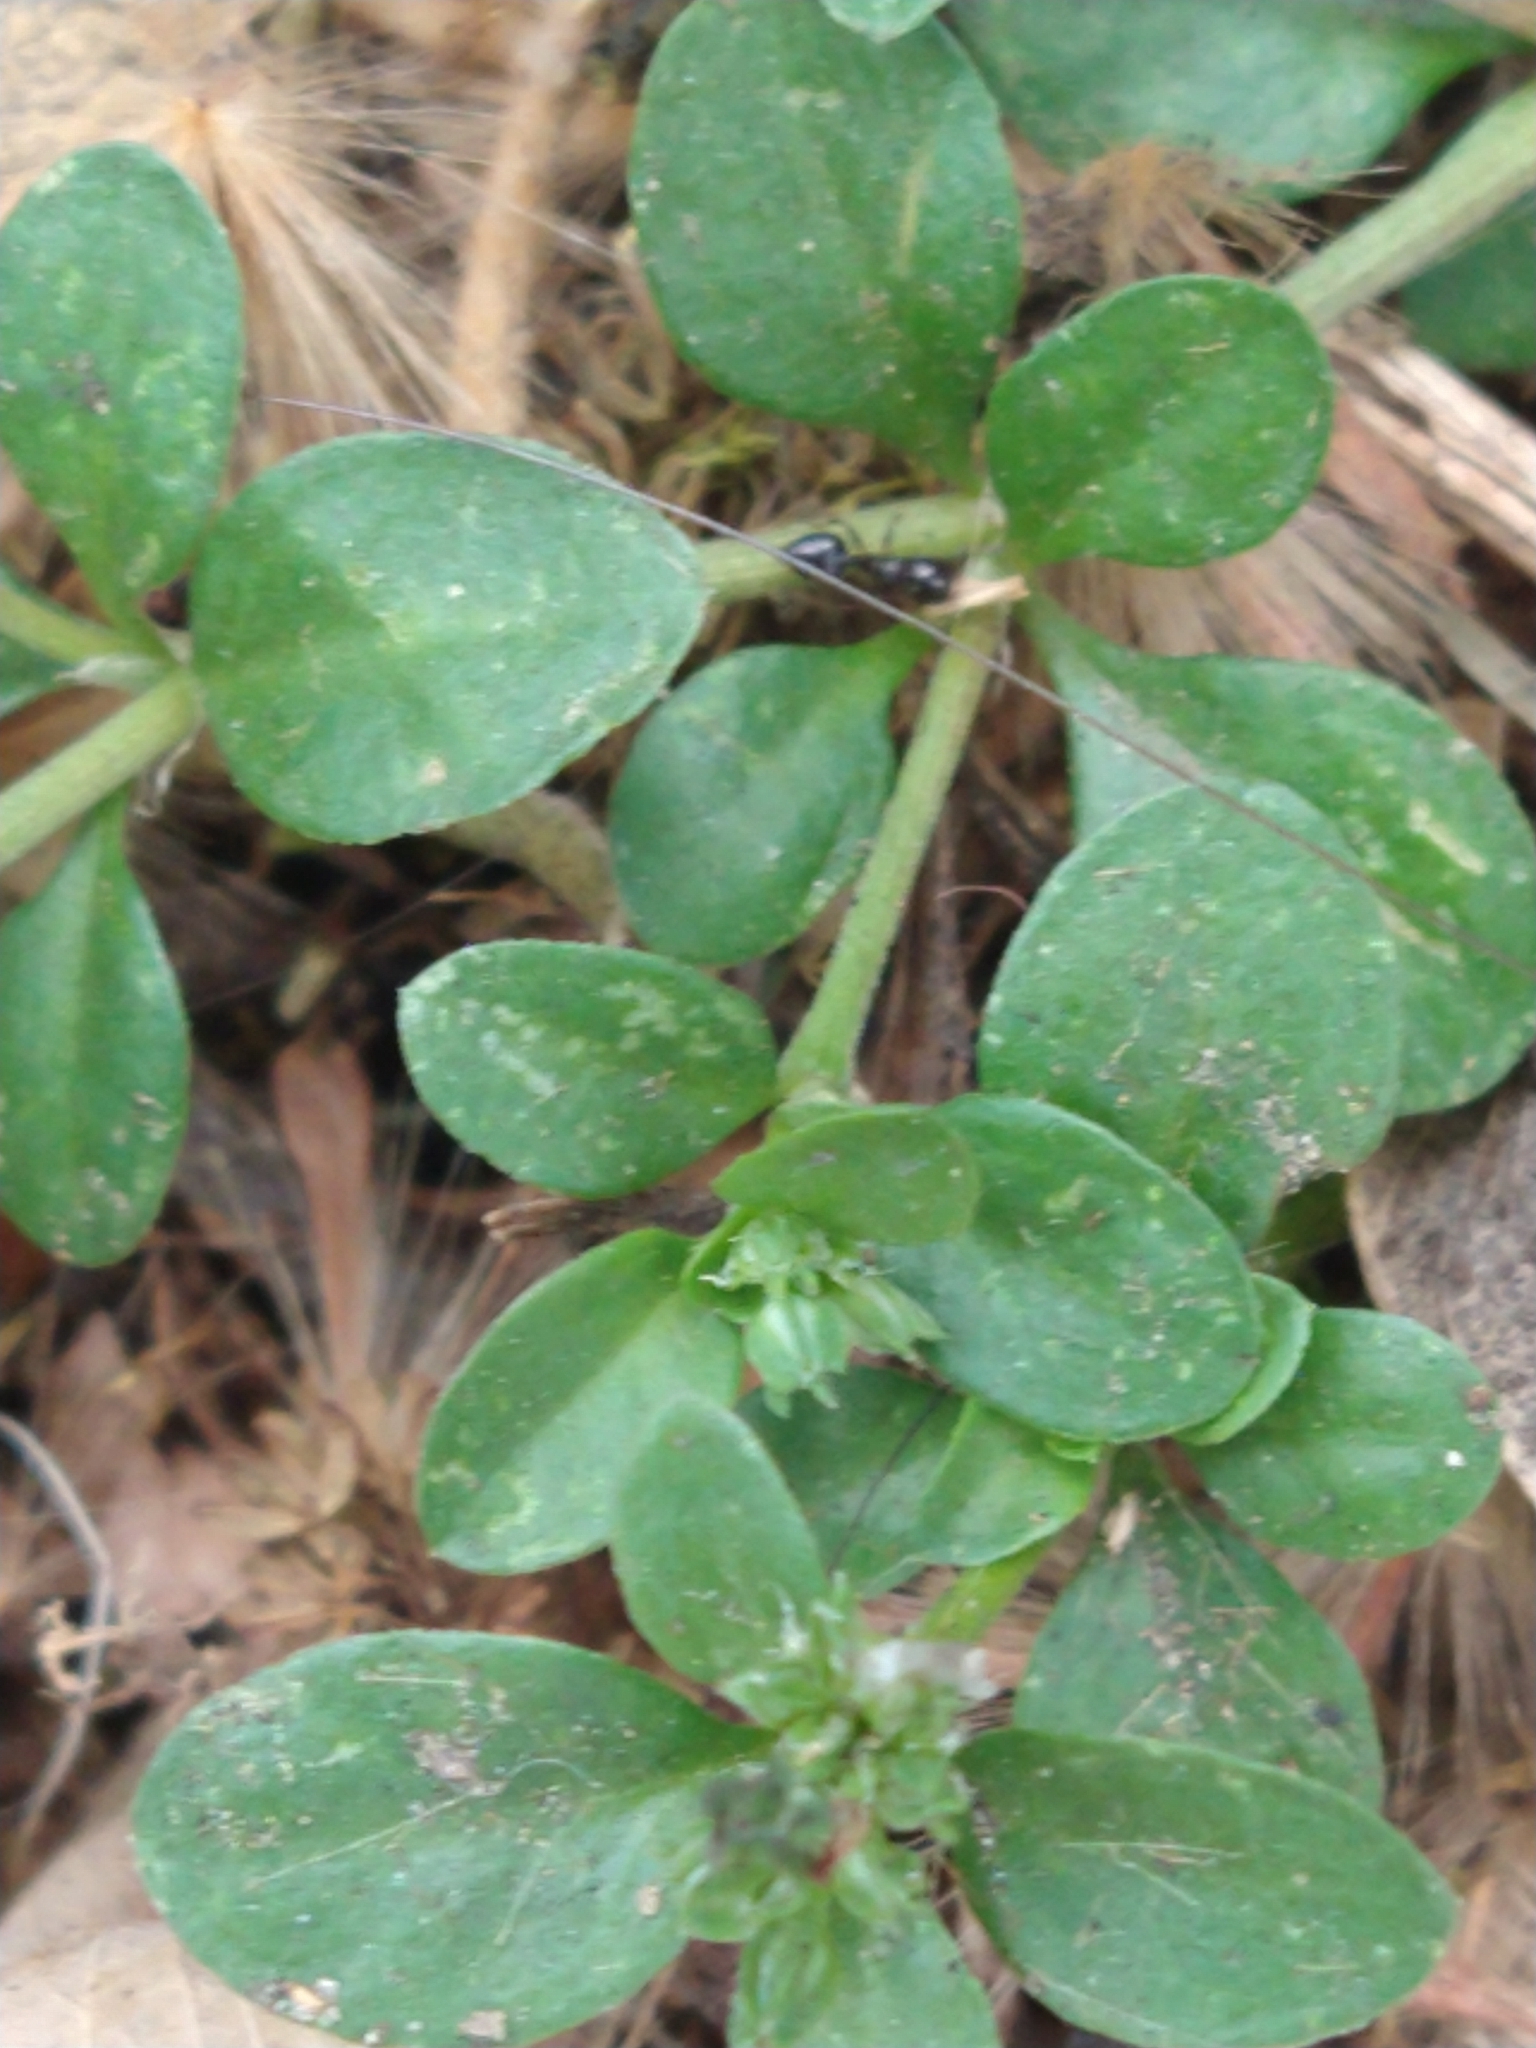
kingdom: Plantae
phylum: Tracheophyta
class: Magnoliopsida
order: Caryophyllales
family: Caryophyllaceae
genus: Polycarpon
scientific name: Polycarpon tetraphyllum
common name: Four-leaved all-seed
